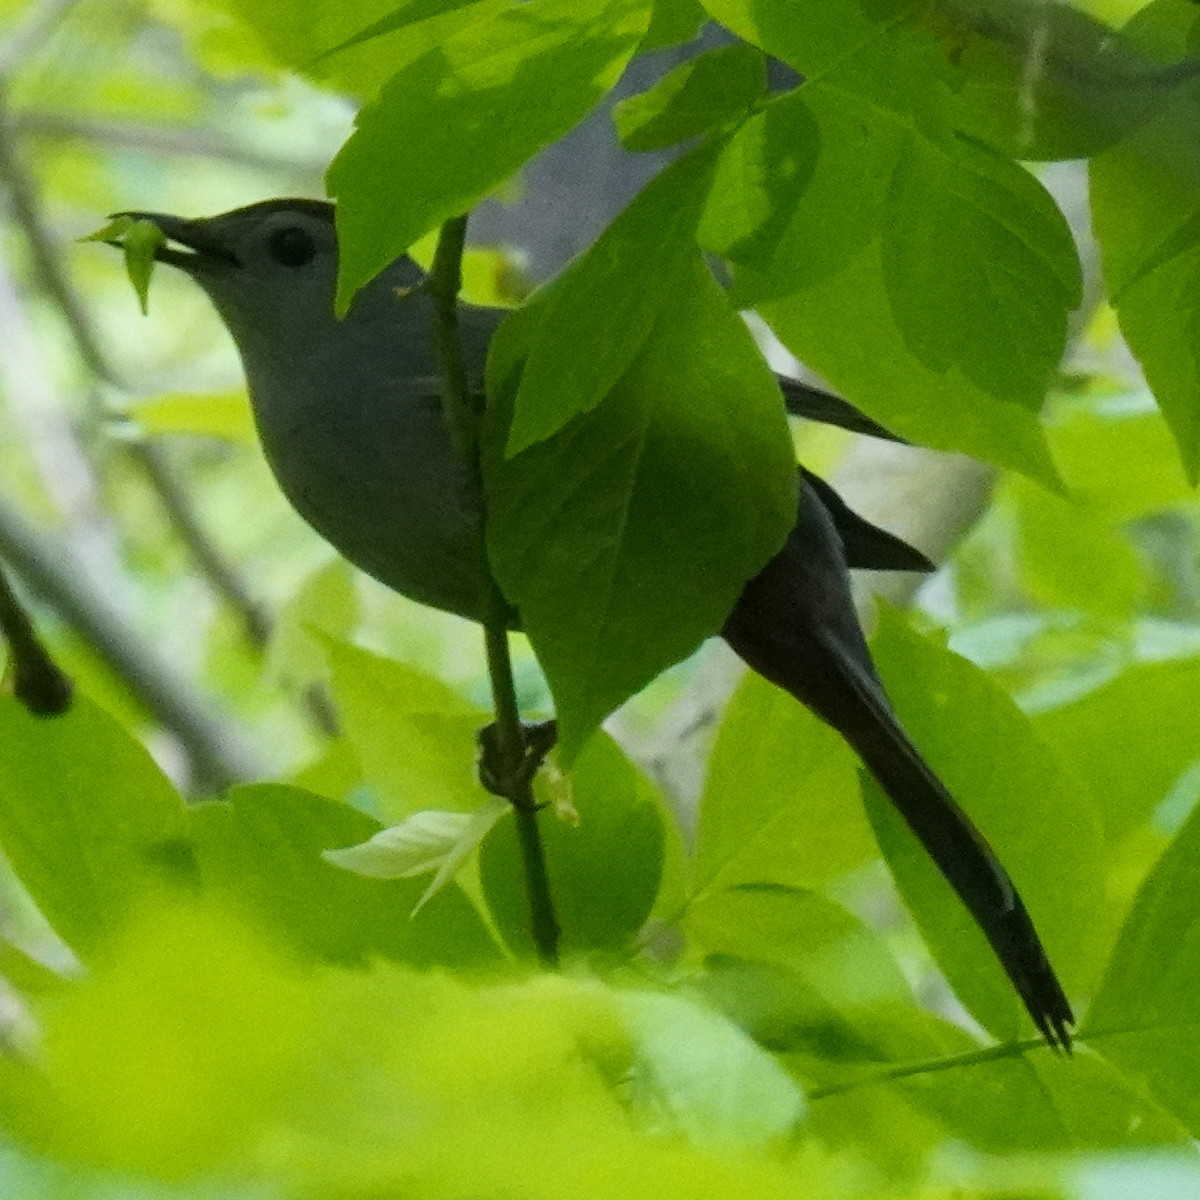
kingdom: Animalia
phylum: Chordata
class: Aves
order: Passeriformes
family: Mimidae
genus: Dumetella
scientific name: Dumetella carolinensis
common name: Gray catbird
